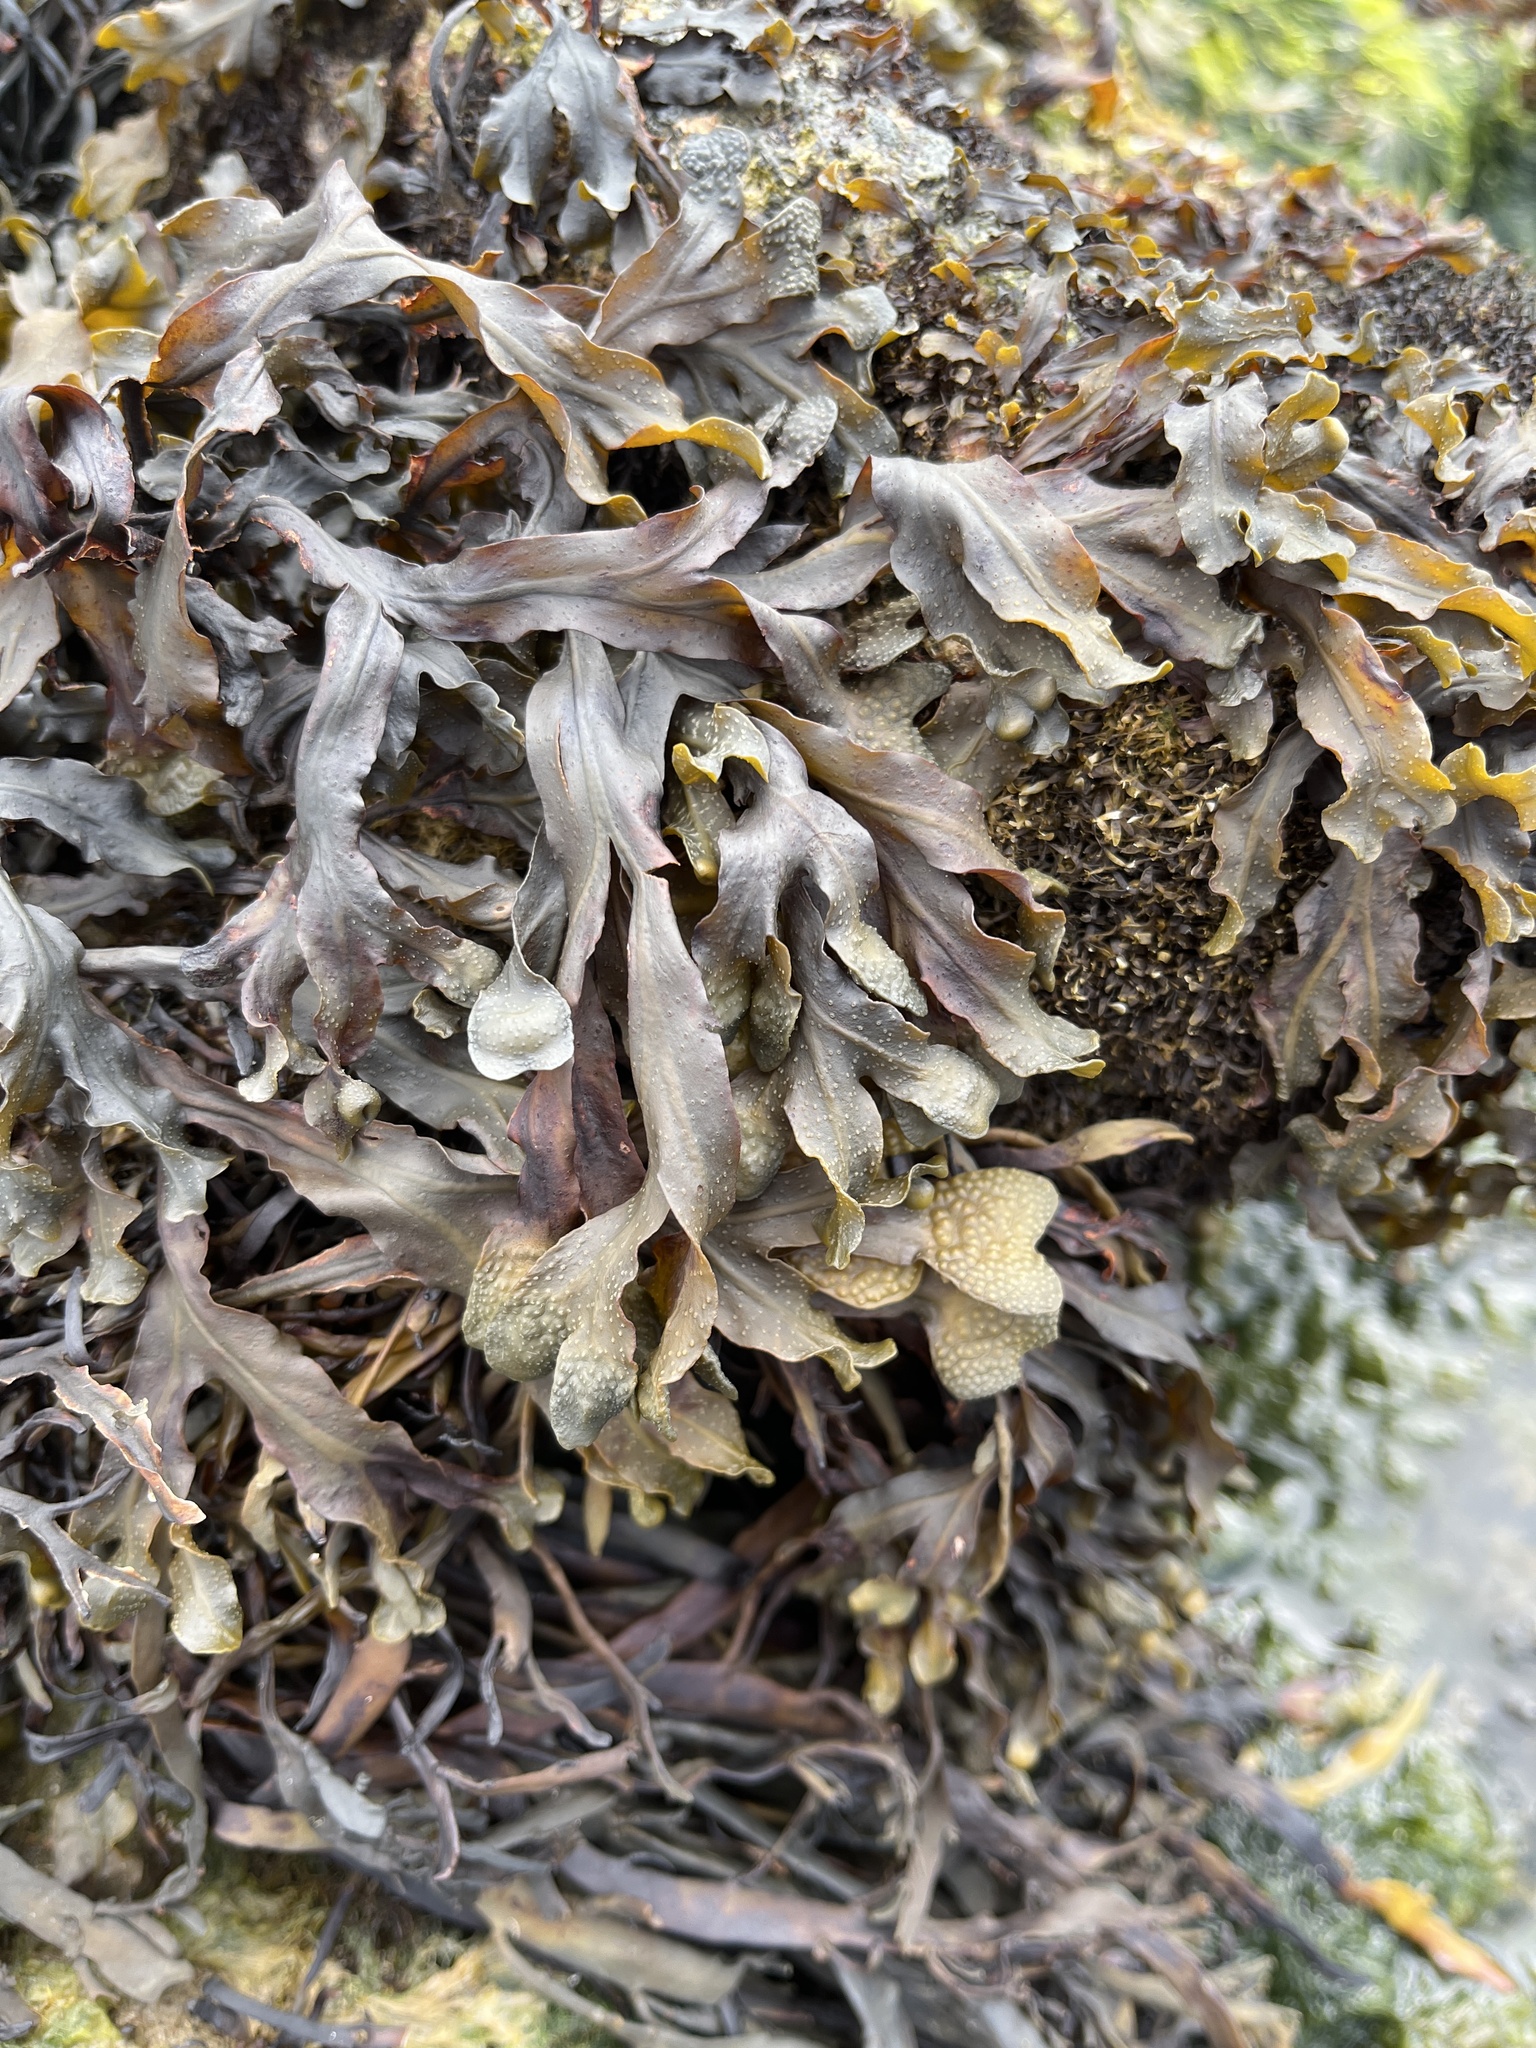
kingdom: Chromista
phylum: Ochrophyta
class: Phaeophyceae
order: Fucales
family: Fucaceae
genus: Fucus
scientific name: Fucus spiralis
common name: Spiral wrack
